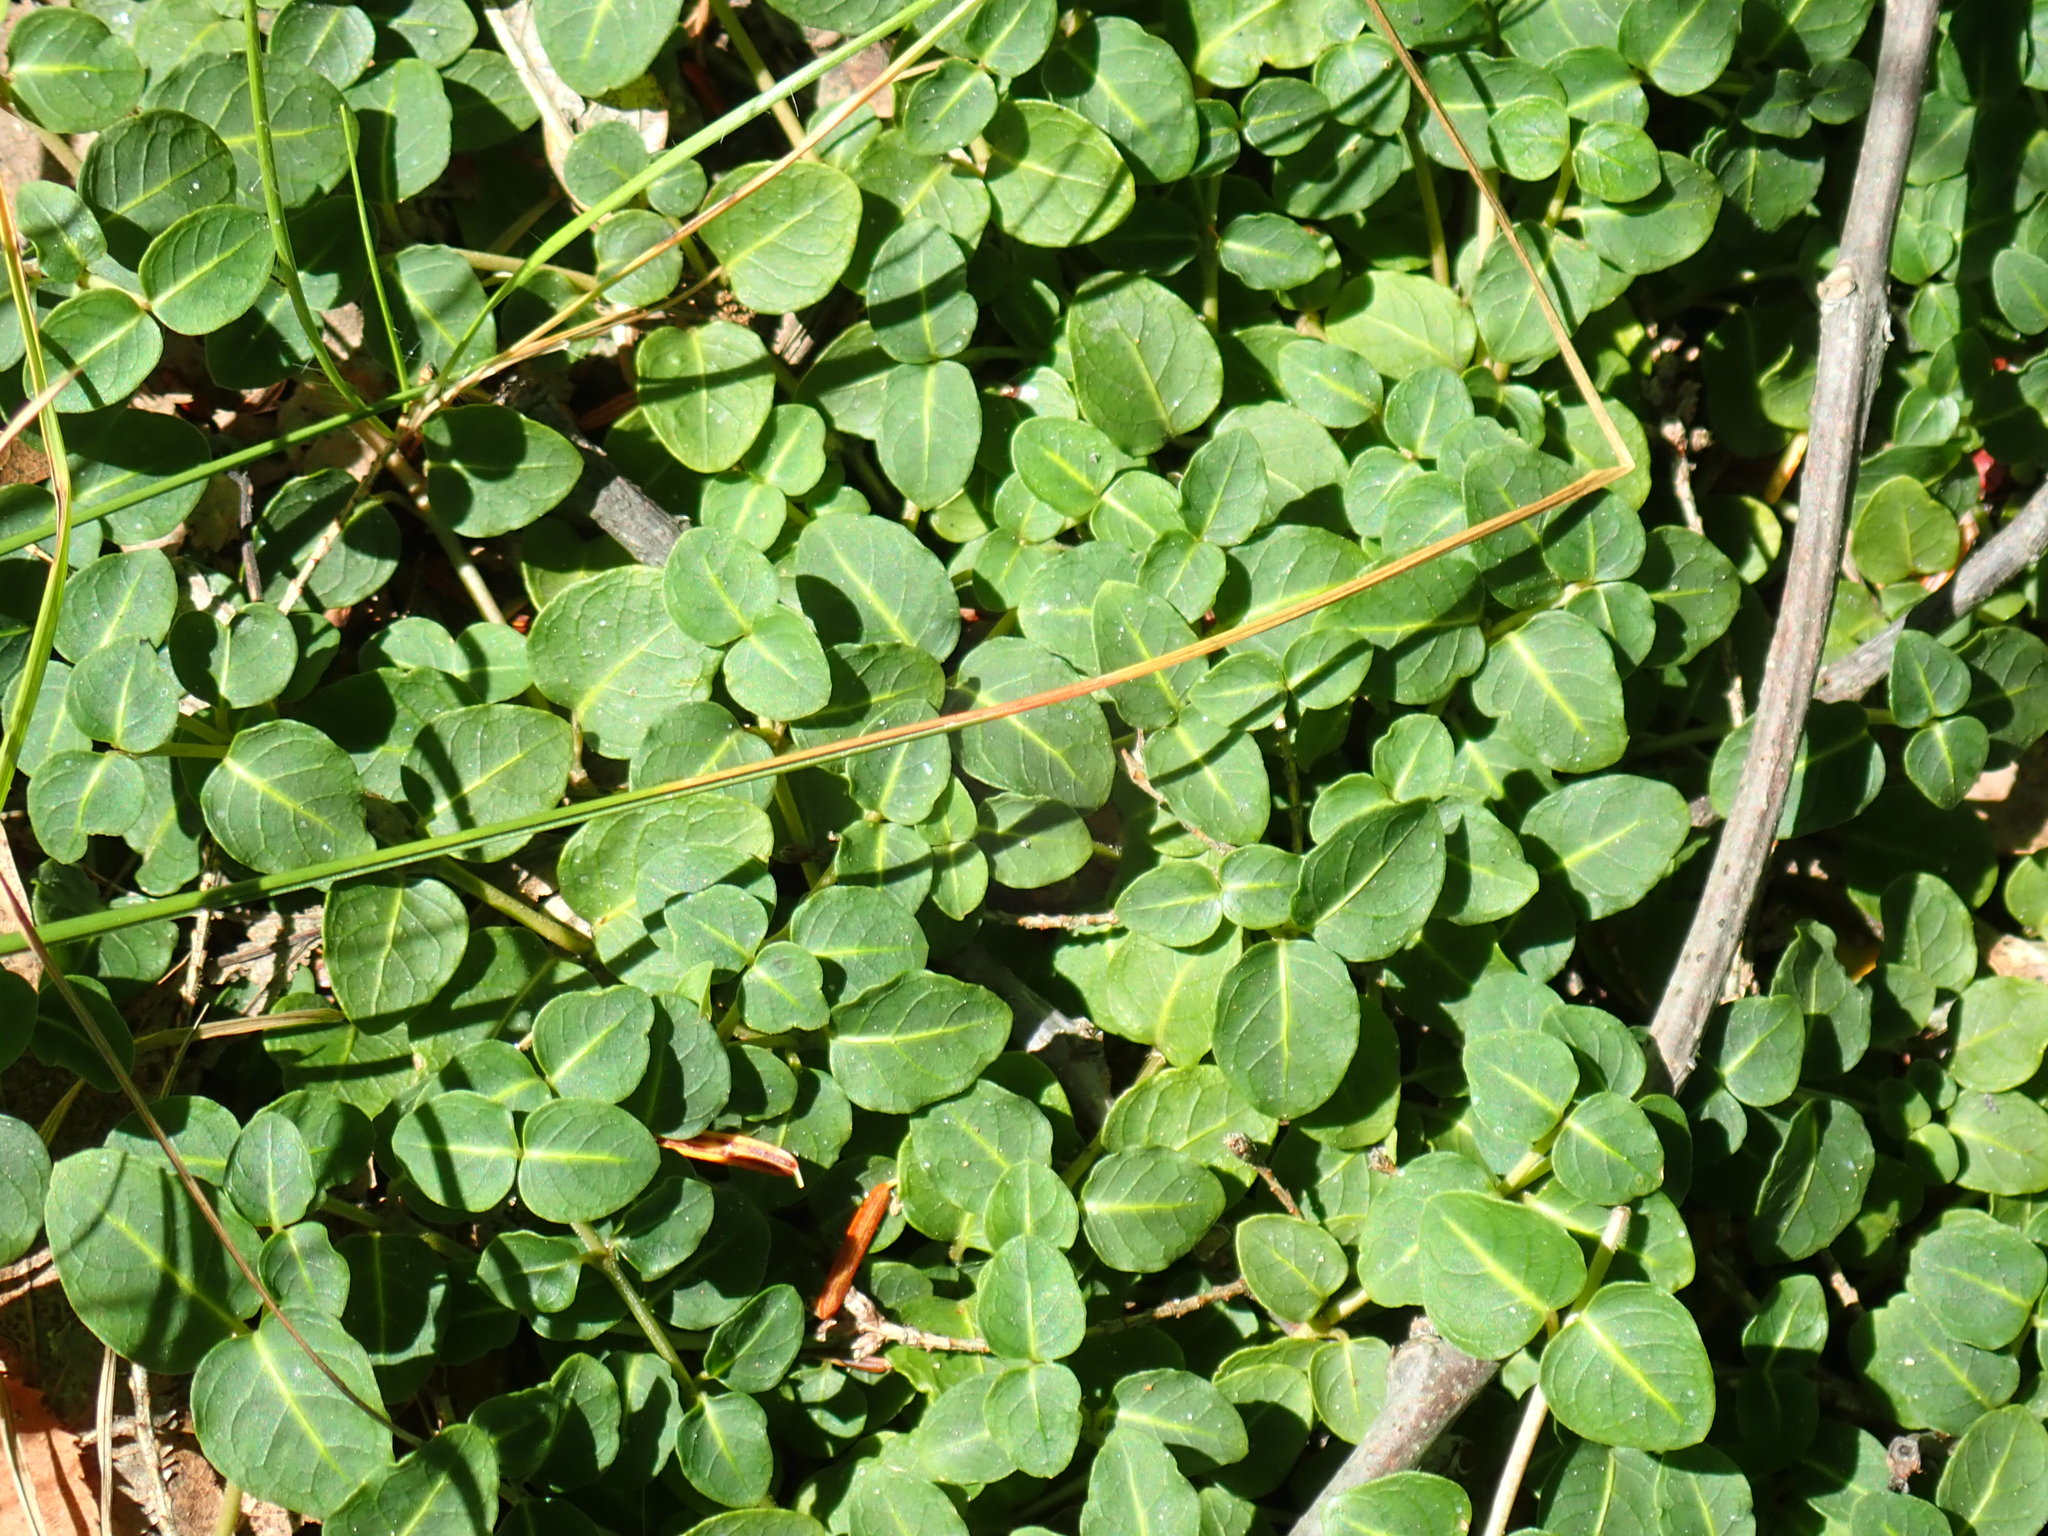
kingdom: Plantae
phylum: Tracheophyta
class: Magnoliopsida
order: Gentianales
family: Rubiaceae
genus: Mitchella
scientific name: Mitchella repens
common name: Partridge-berry
